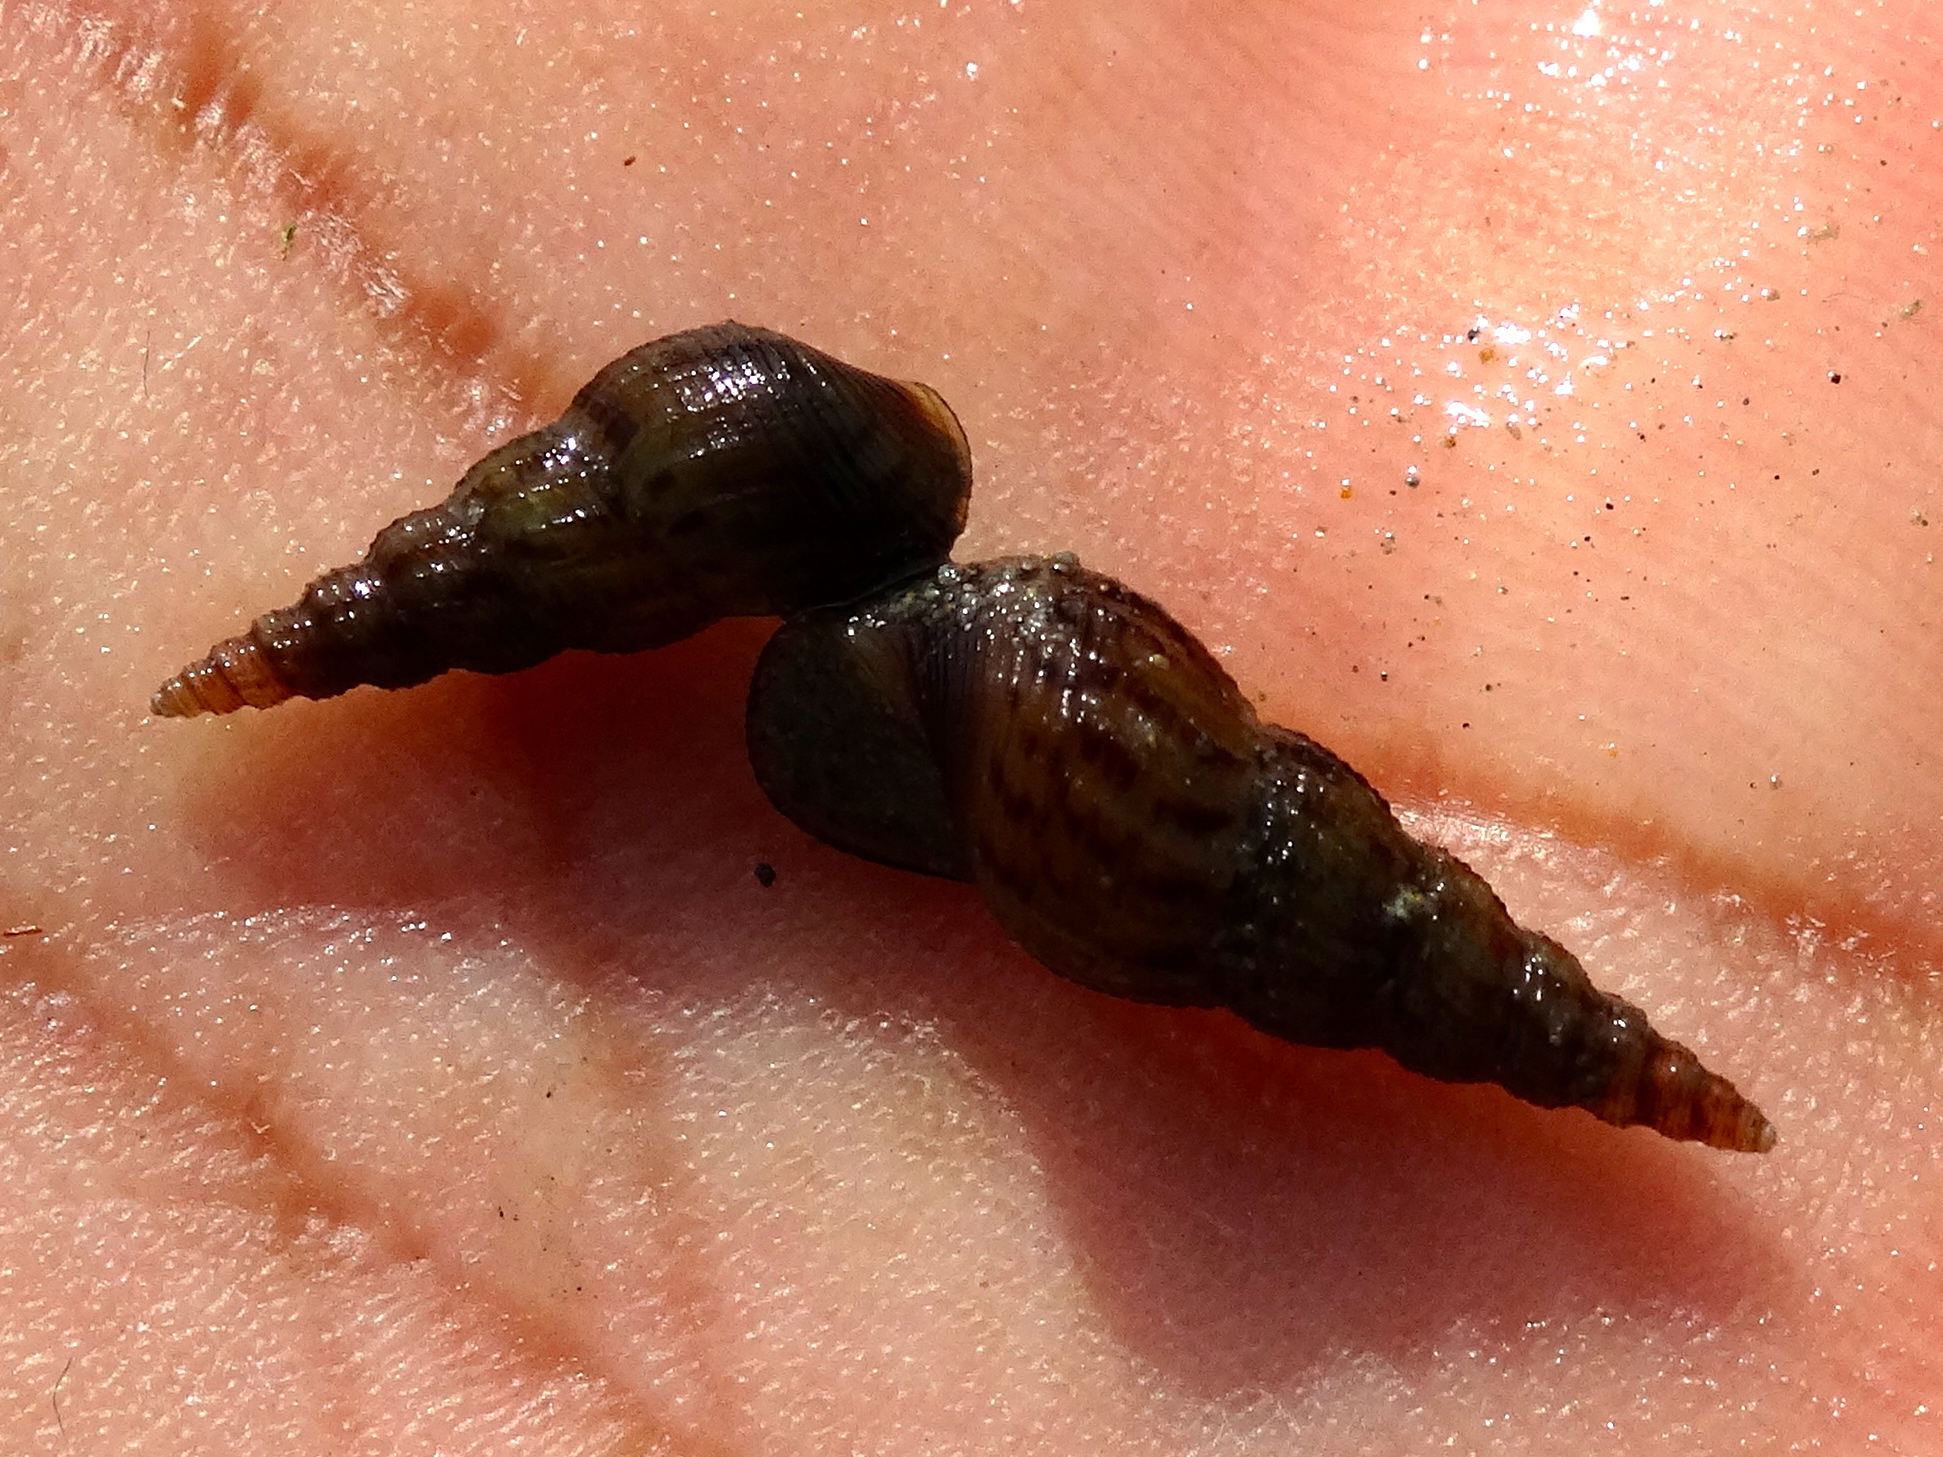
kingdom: Animalia
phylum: Mollusca
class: Gastropoda
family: Thiaridae
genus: Melanoides
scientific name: Melanoides tuberculata
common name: Red-rim melania
